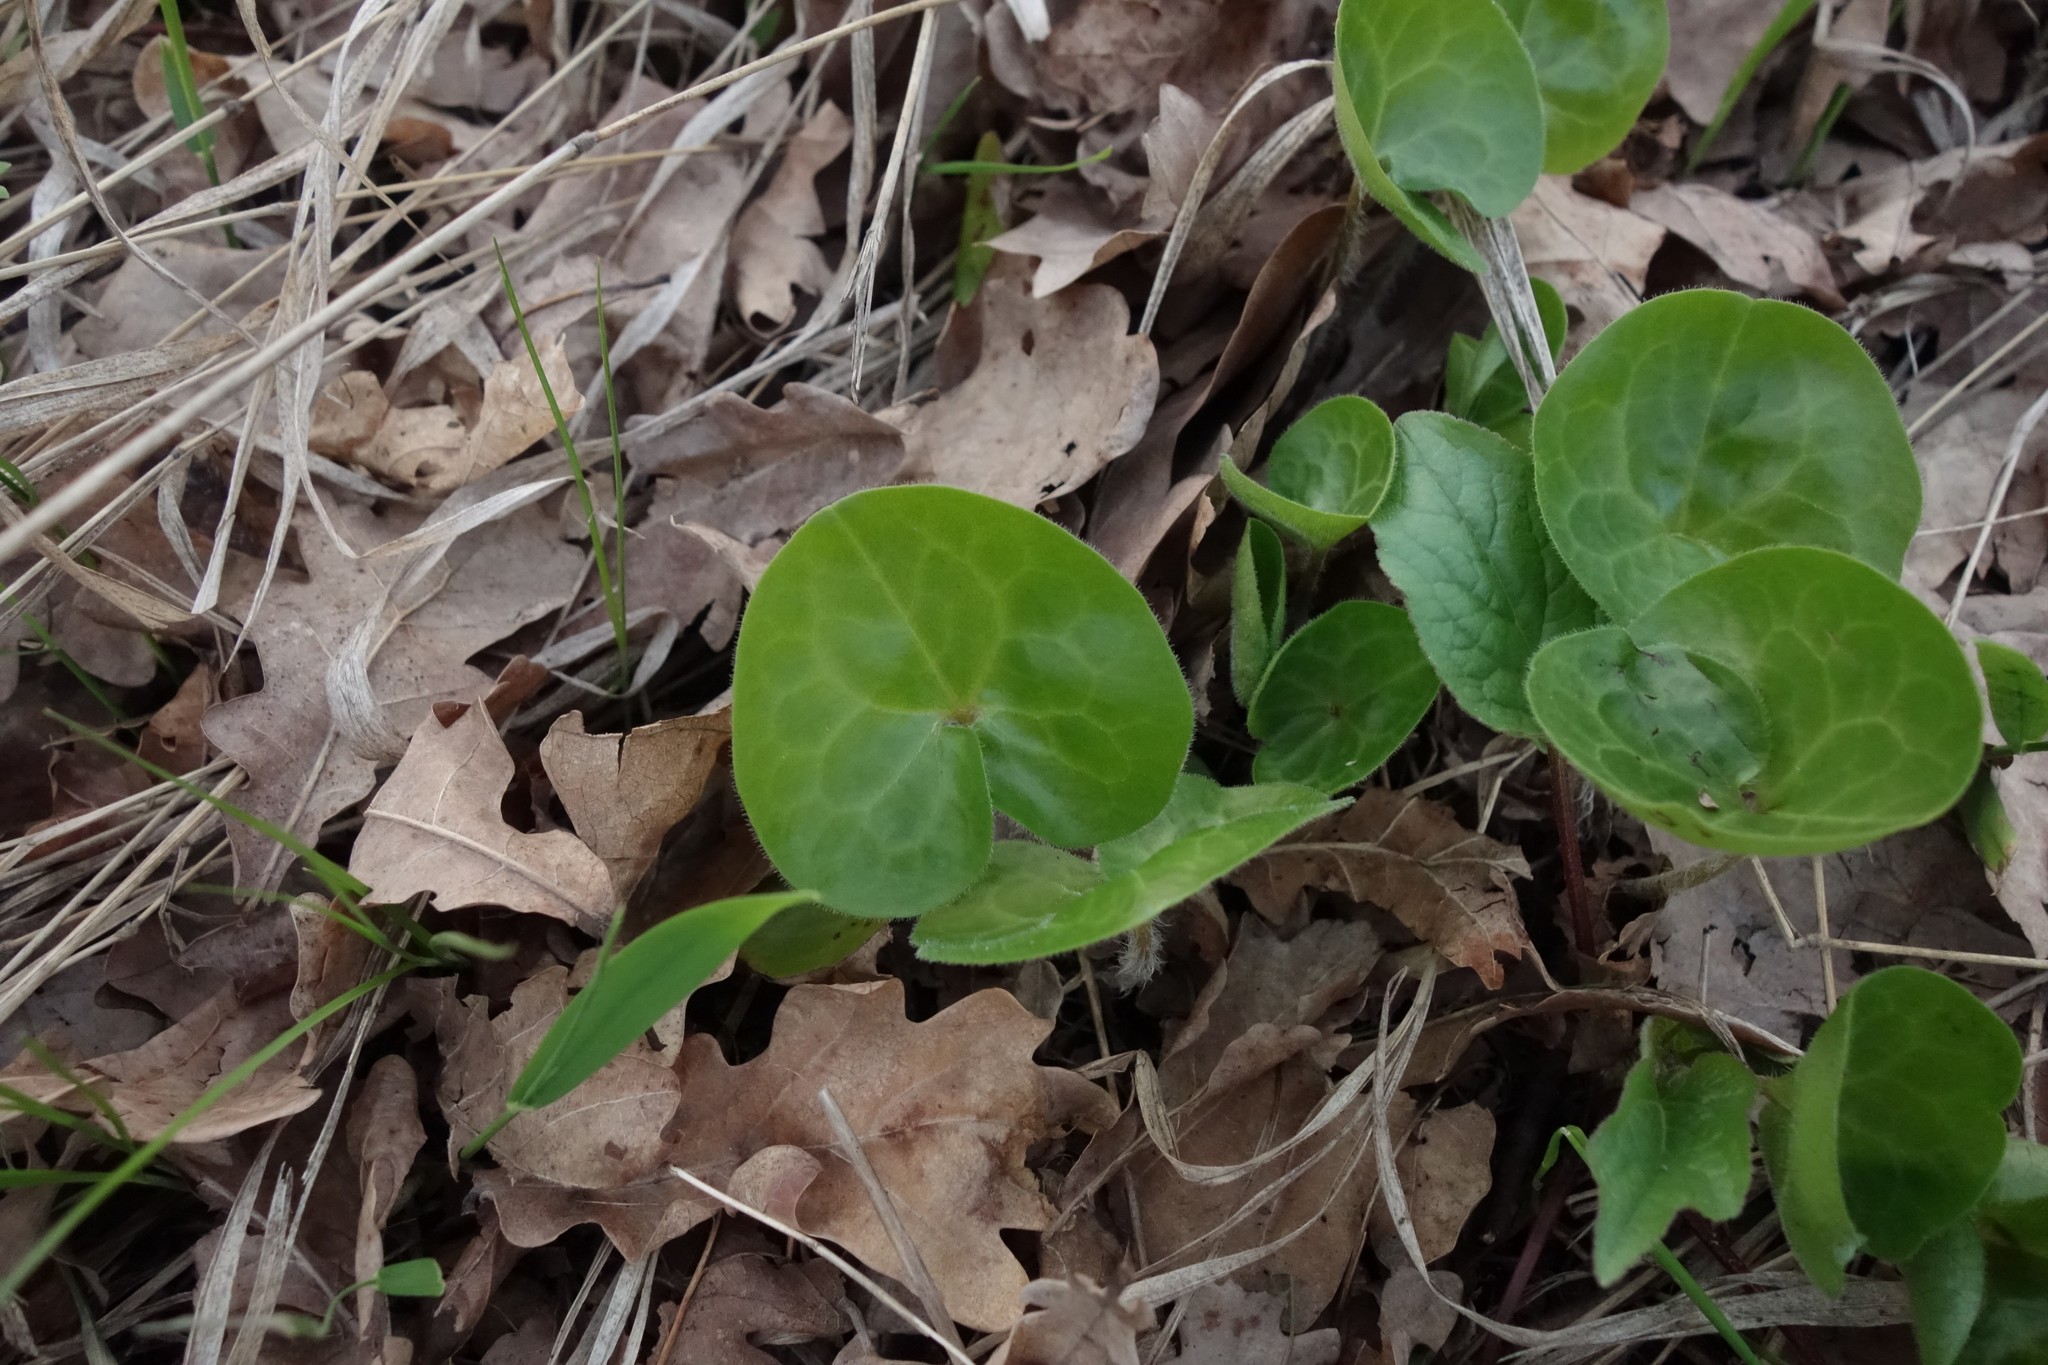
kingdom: Plantae
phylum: Tracheophyta
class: Magnoliopsida
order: Piperales
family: Aristolochiaceae
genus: Asarum
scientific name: Asarum europaeum
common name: Asarabacca
